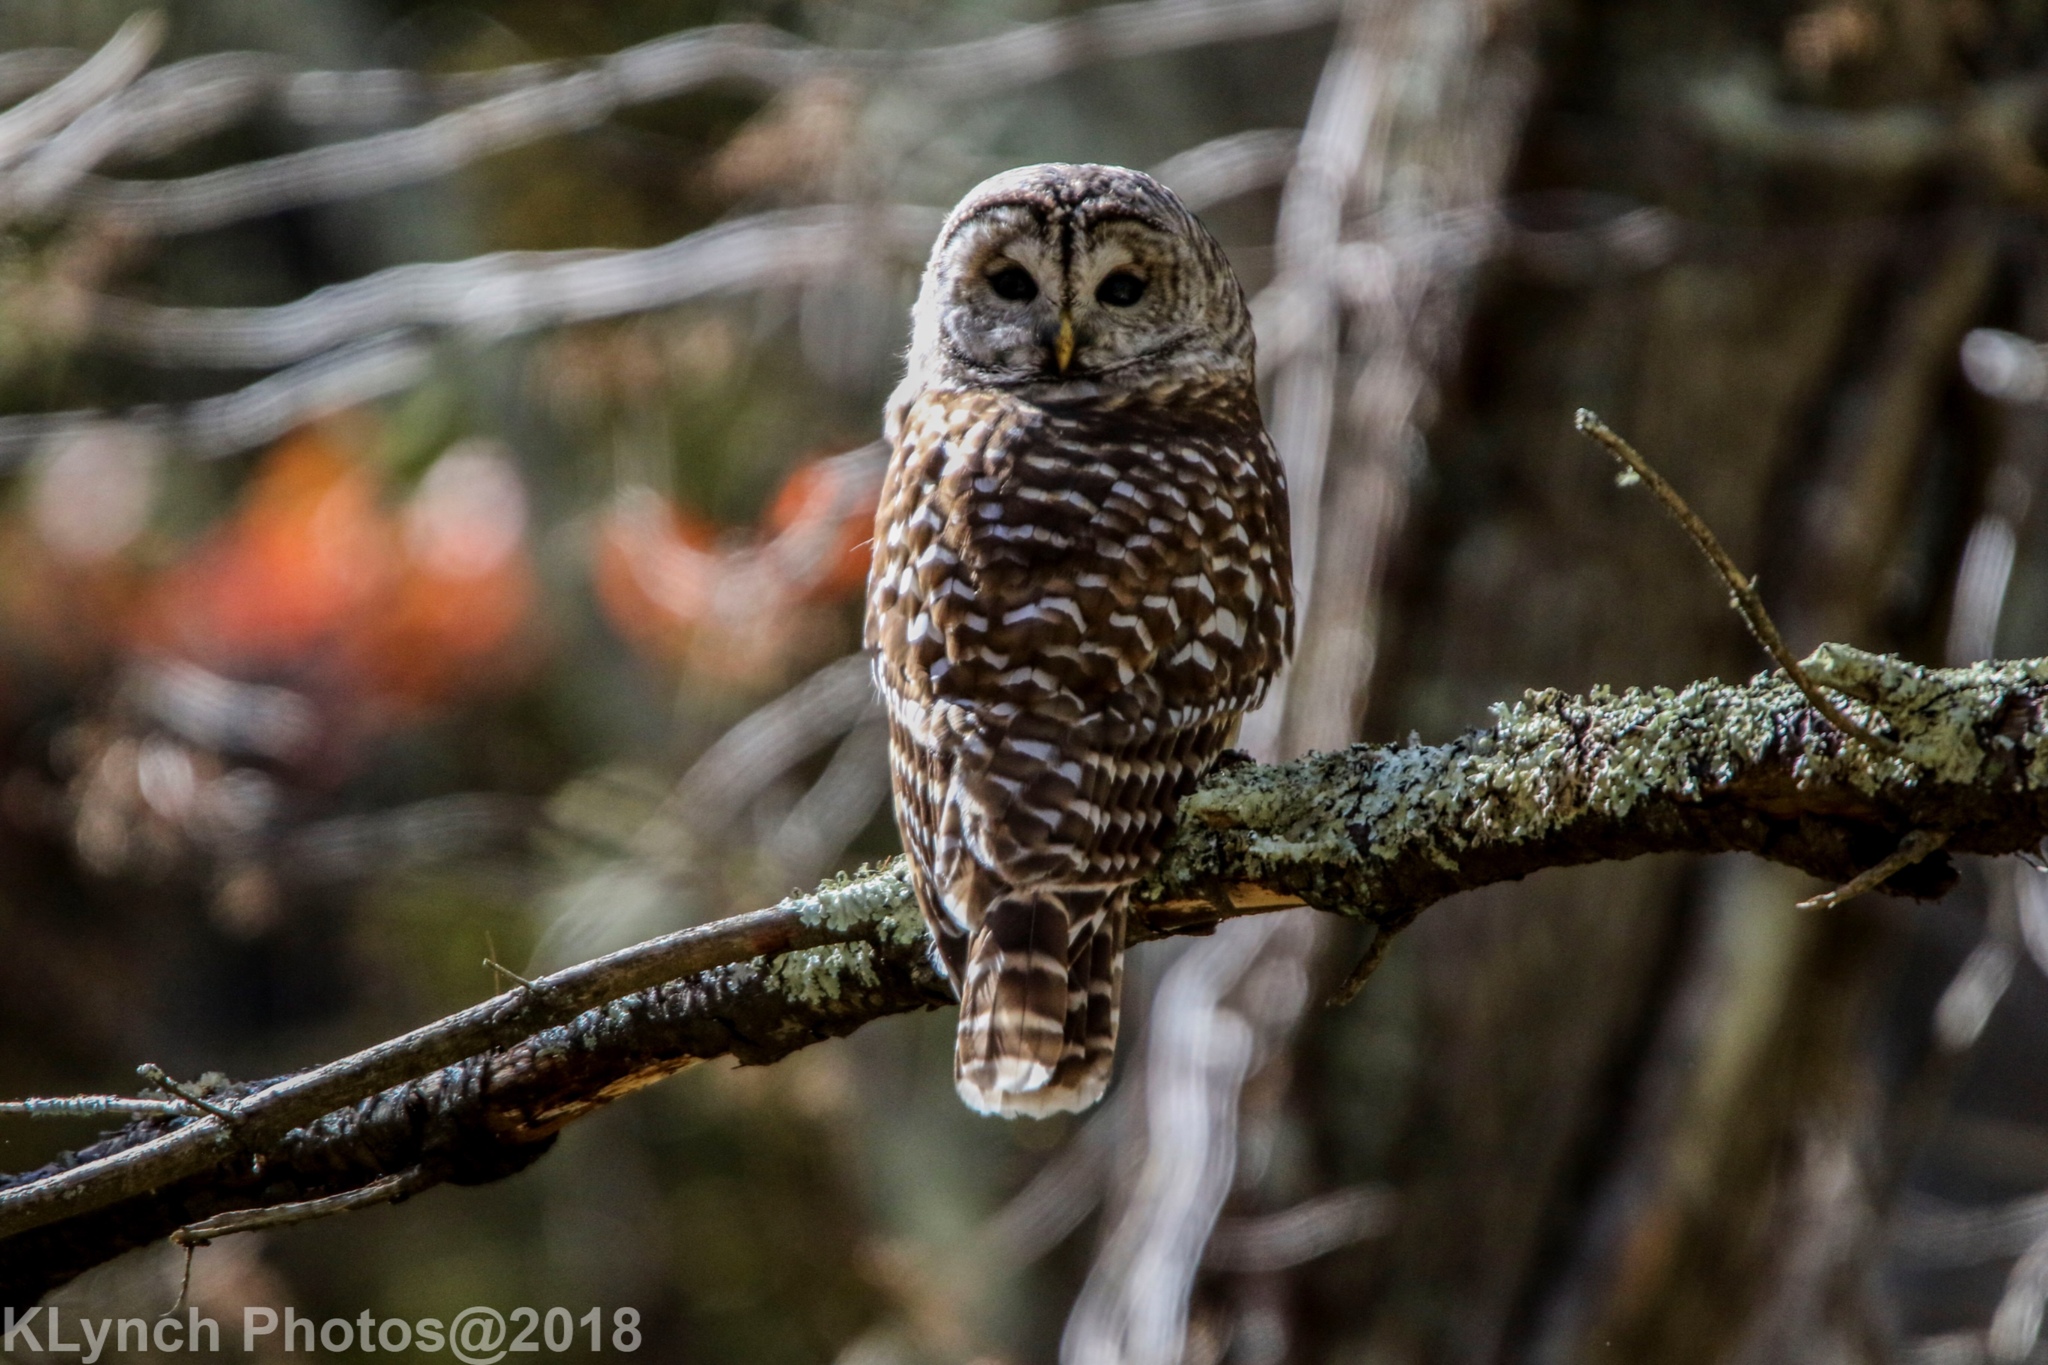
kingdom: Animalia
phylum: Chordata
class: Aves
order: Strigiformes
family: Strigidae
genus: Strix
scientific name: Strix varia
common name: Barred owl
